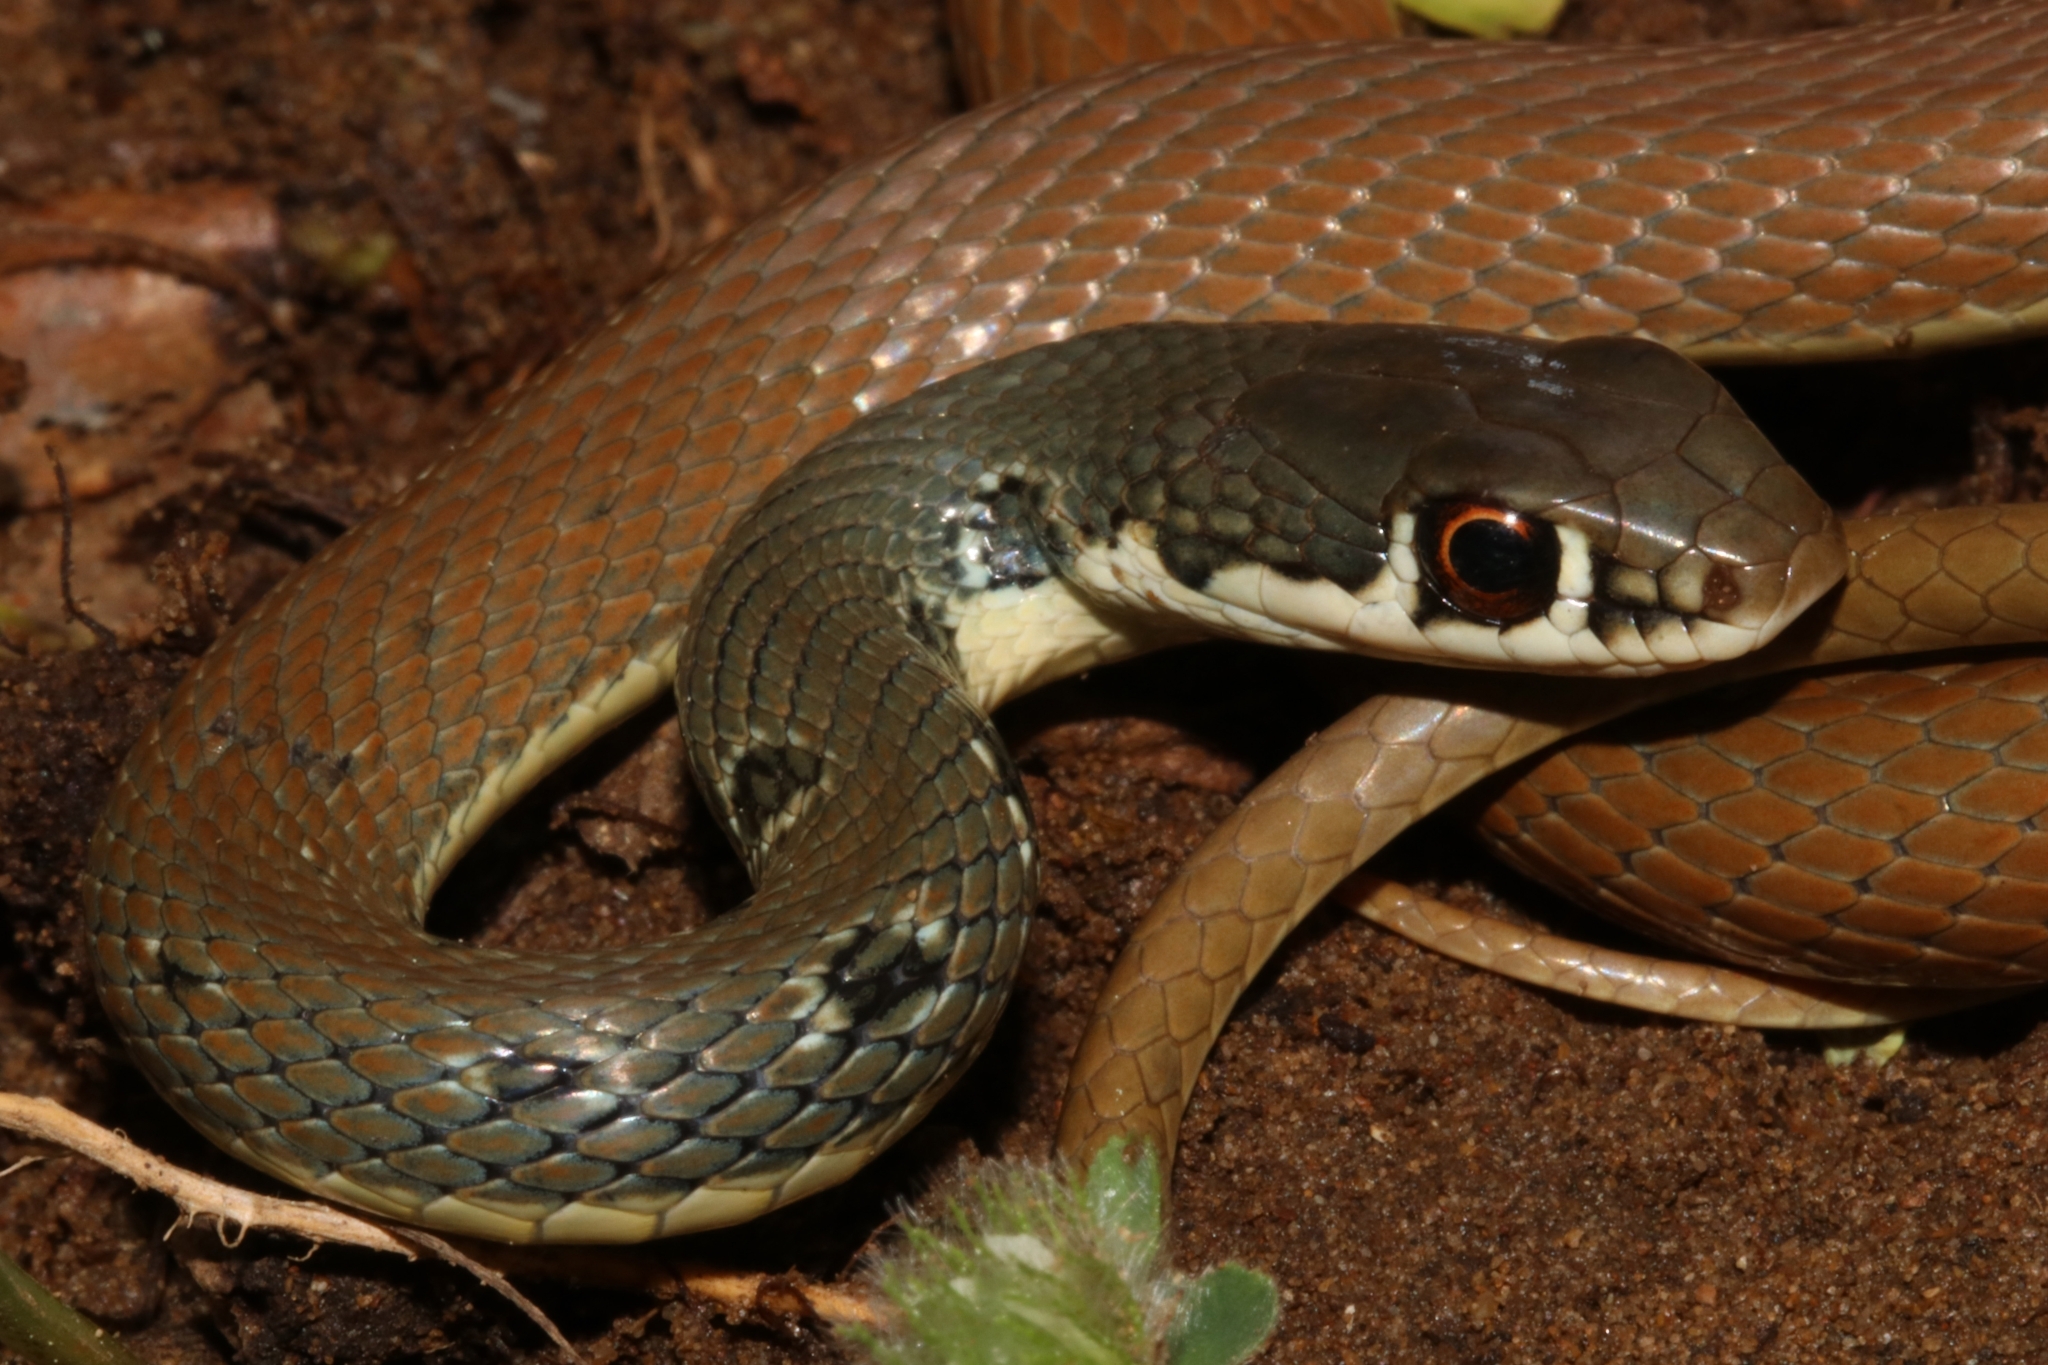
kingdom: Animalia
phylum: Chordata
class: Squamata
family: Colubridae
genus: Platyceps
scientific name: Platyceps najadum
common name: Dahl's whip snake
